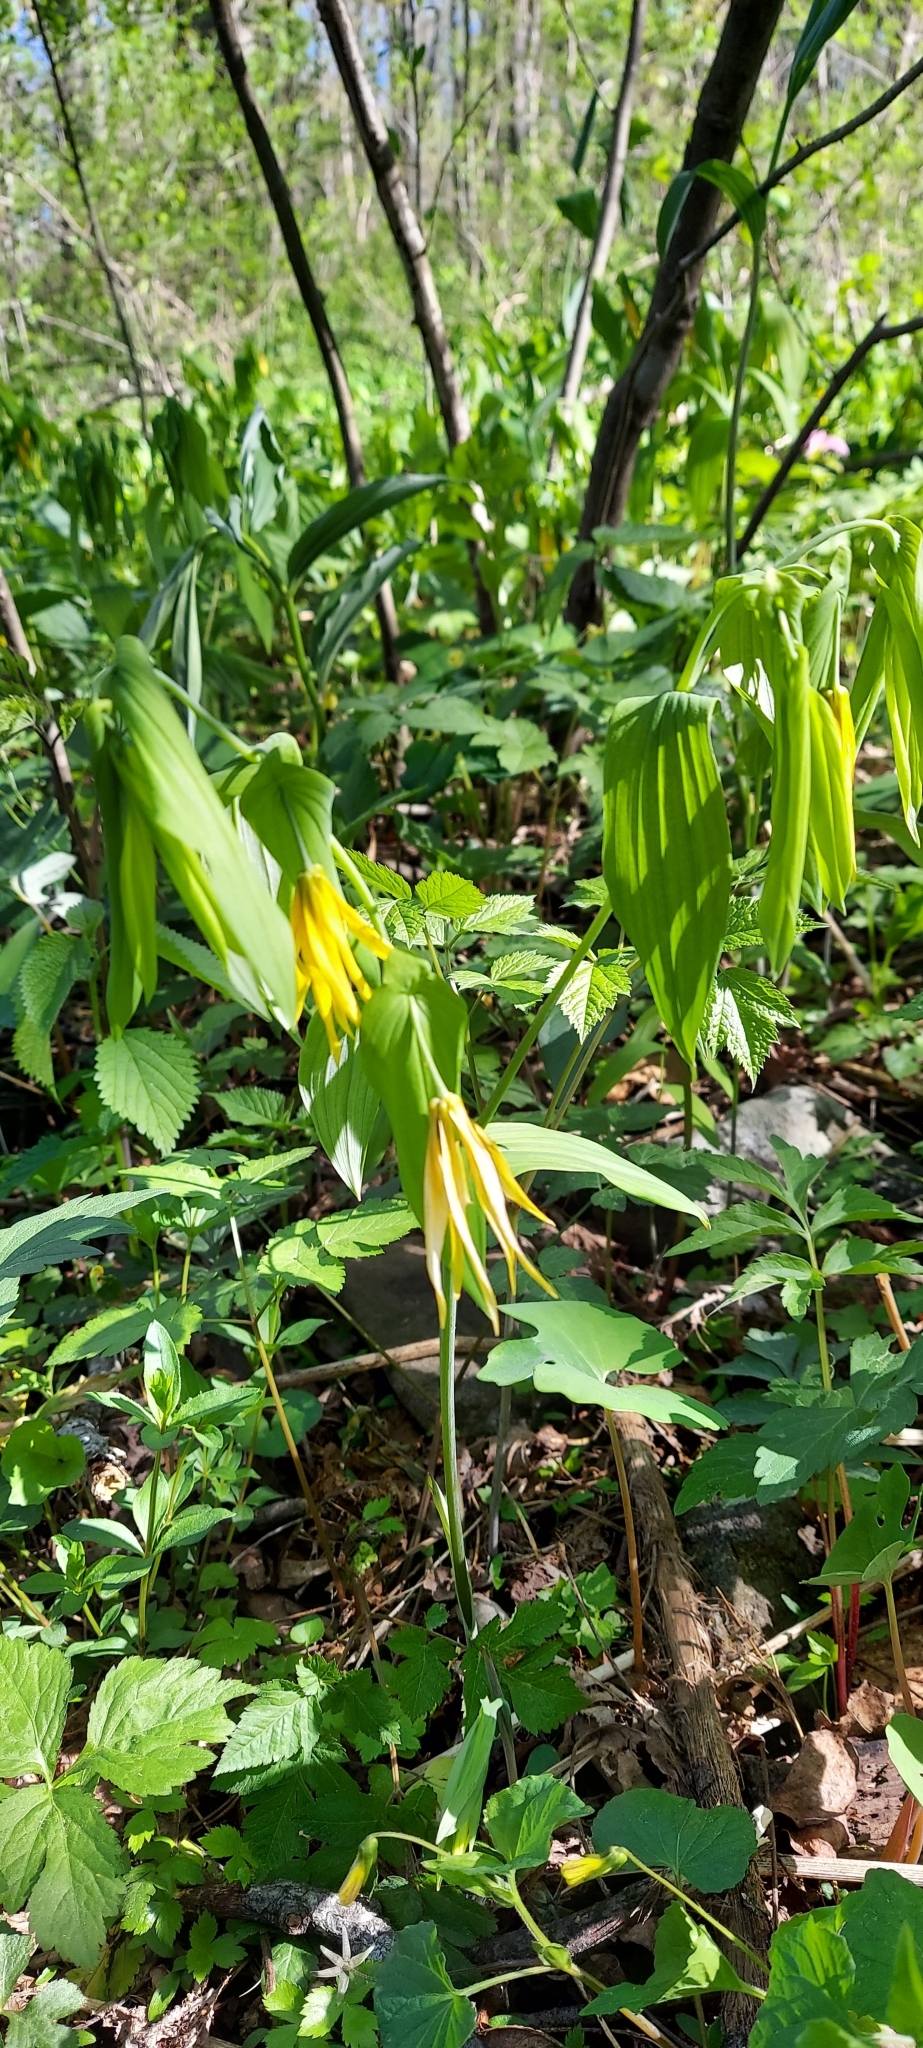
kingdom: Plantae
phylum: Tracheophyta
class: Liliopsida
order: Liliales
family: Colchicaceae
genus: Uvularia
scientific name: Uvularia grandiflora
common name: Bellwort
